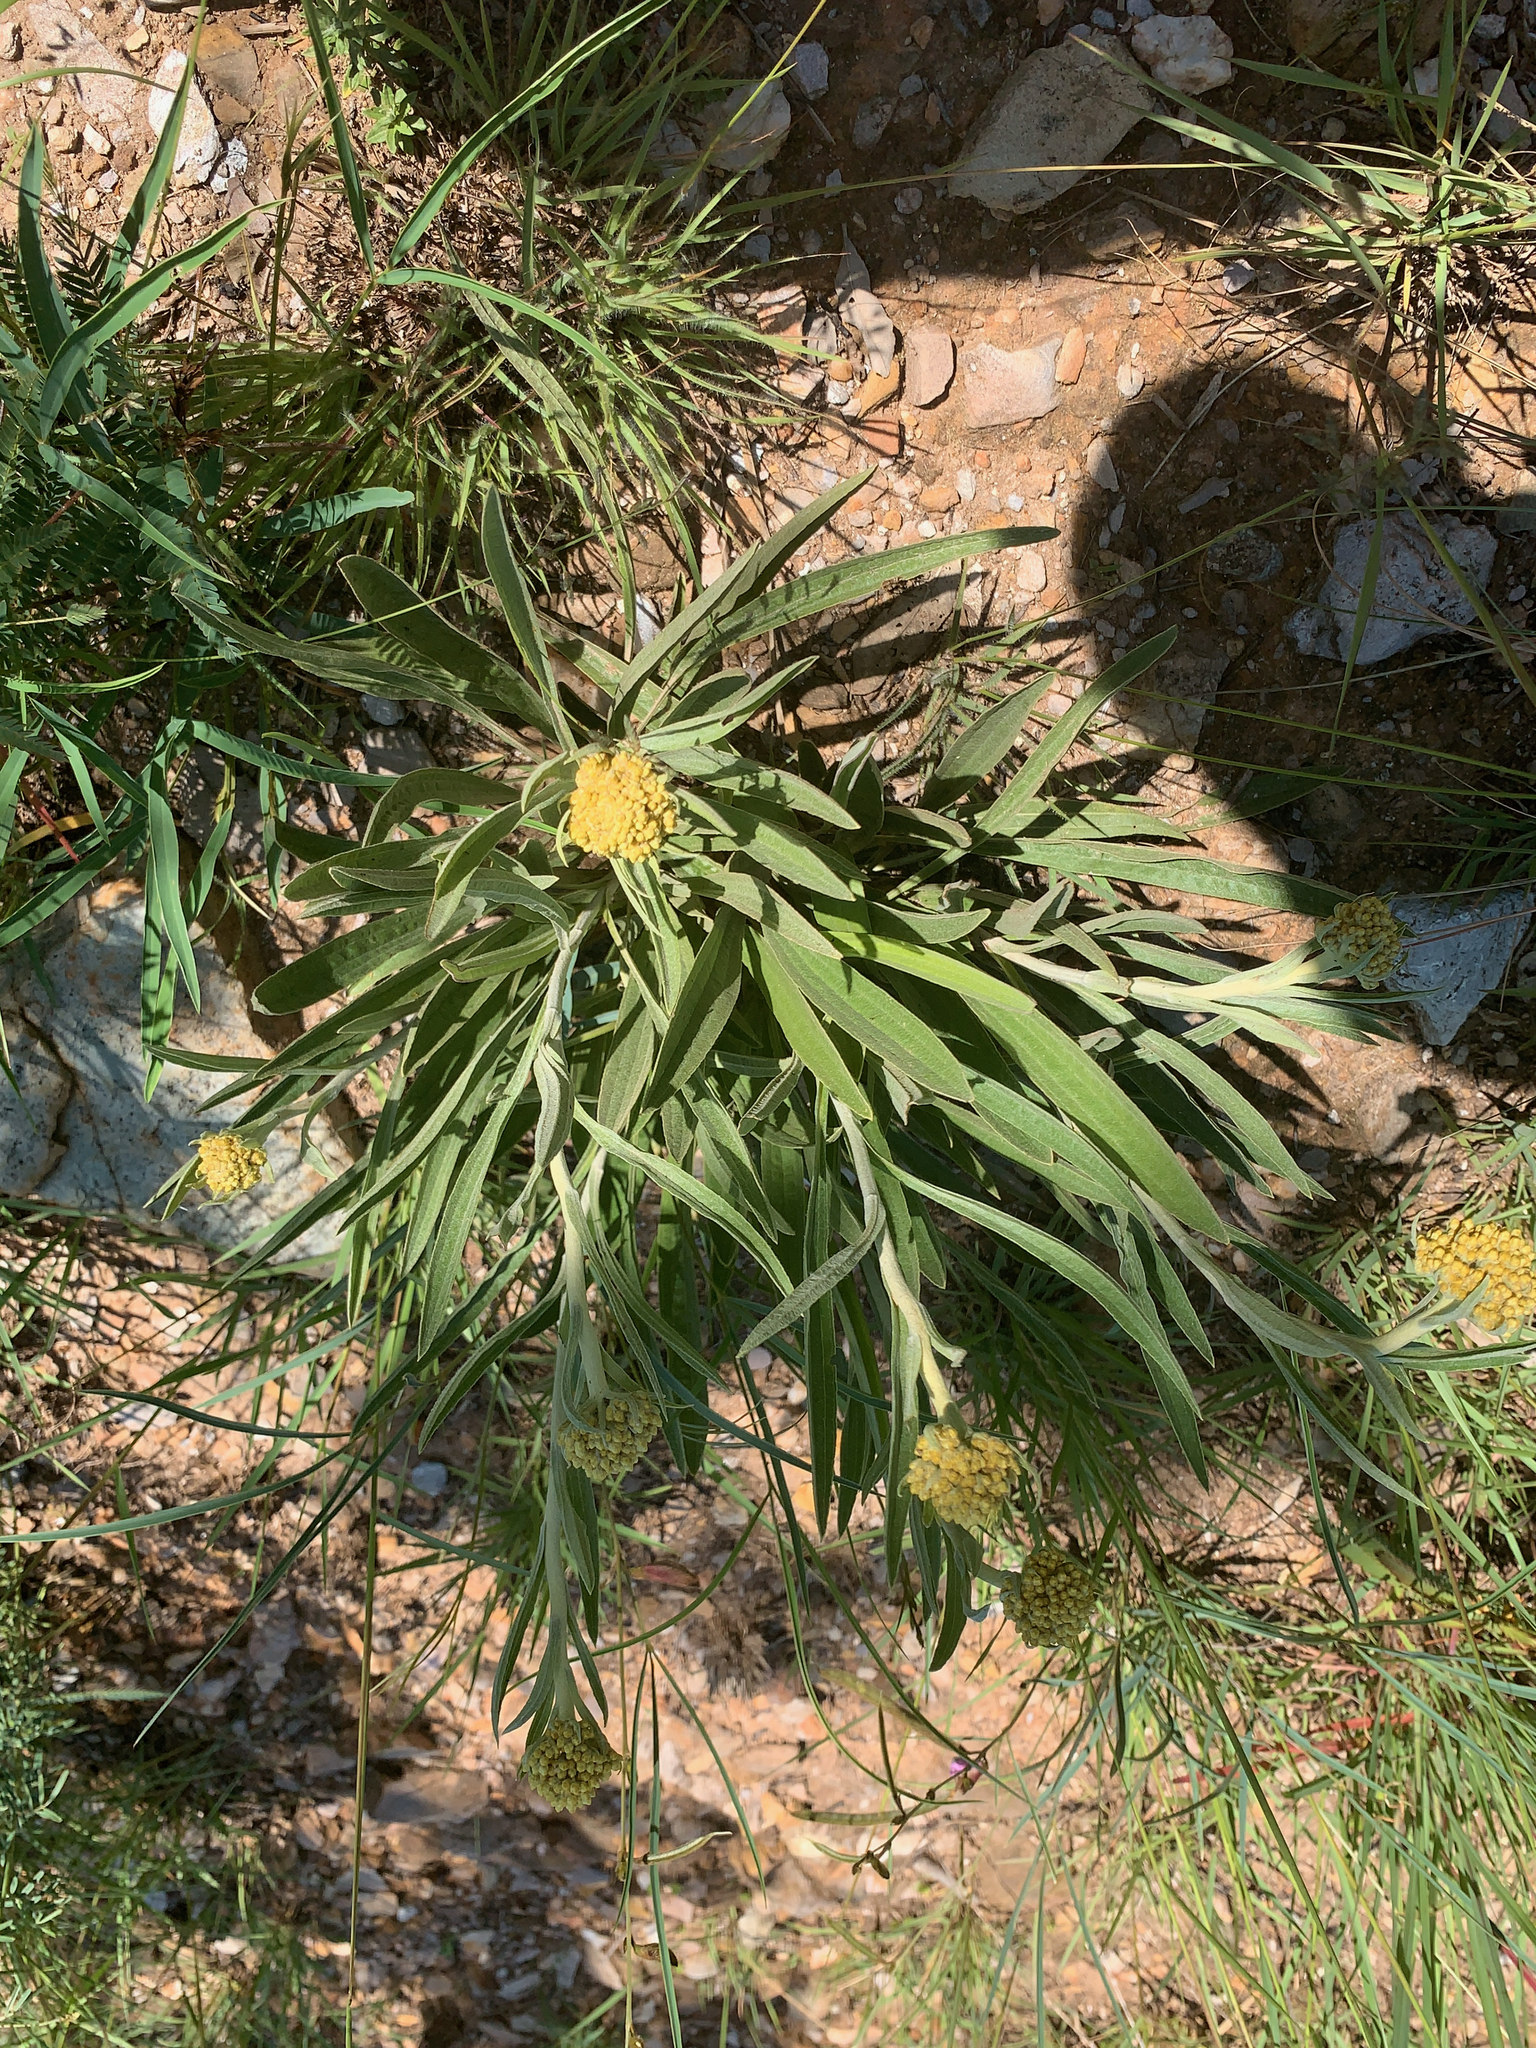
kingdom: Plantae
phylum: Tracheophyta
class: Magnoliopsida
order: Asterales
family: Asteraceae
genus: Helichrysum
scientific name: Helichrysum nudifolium
